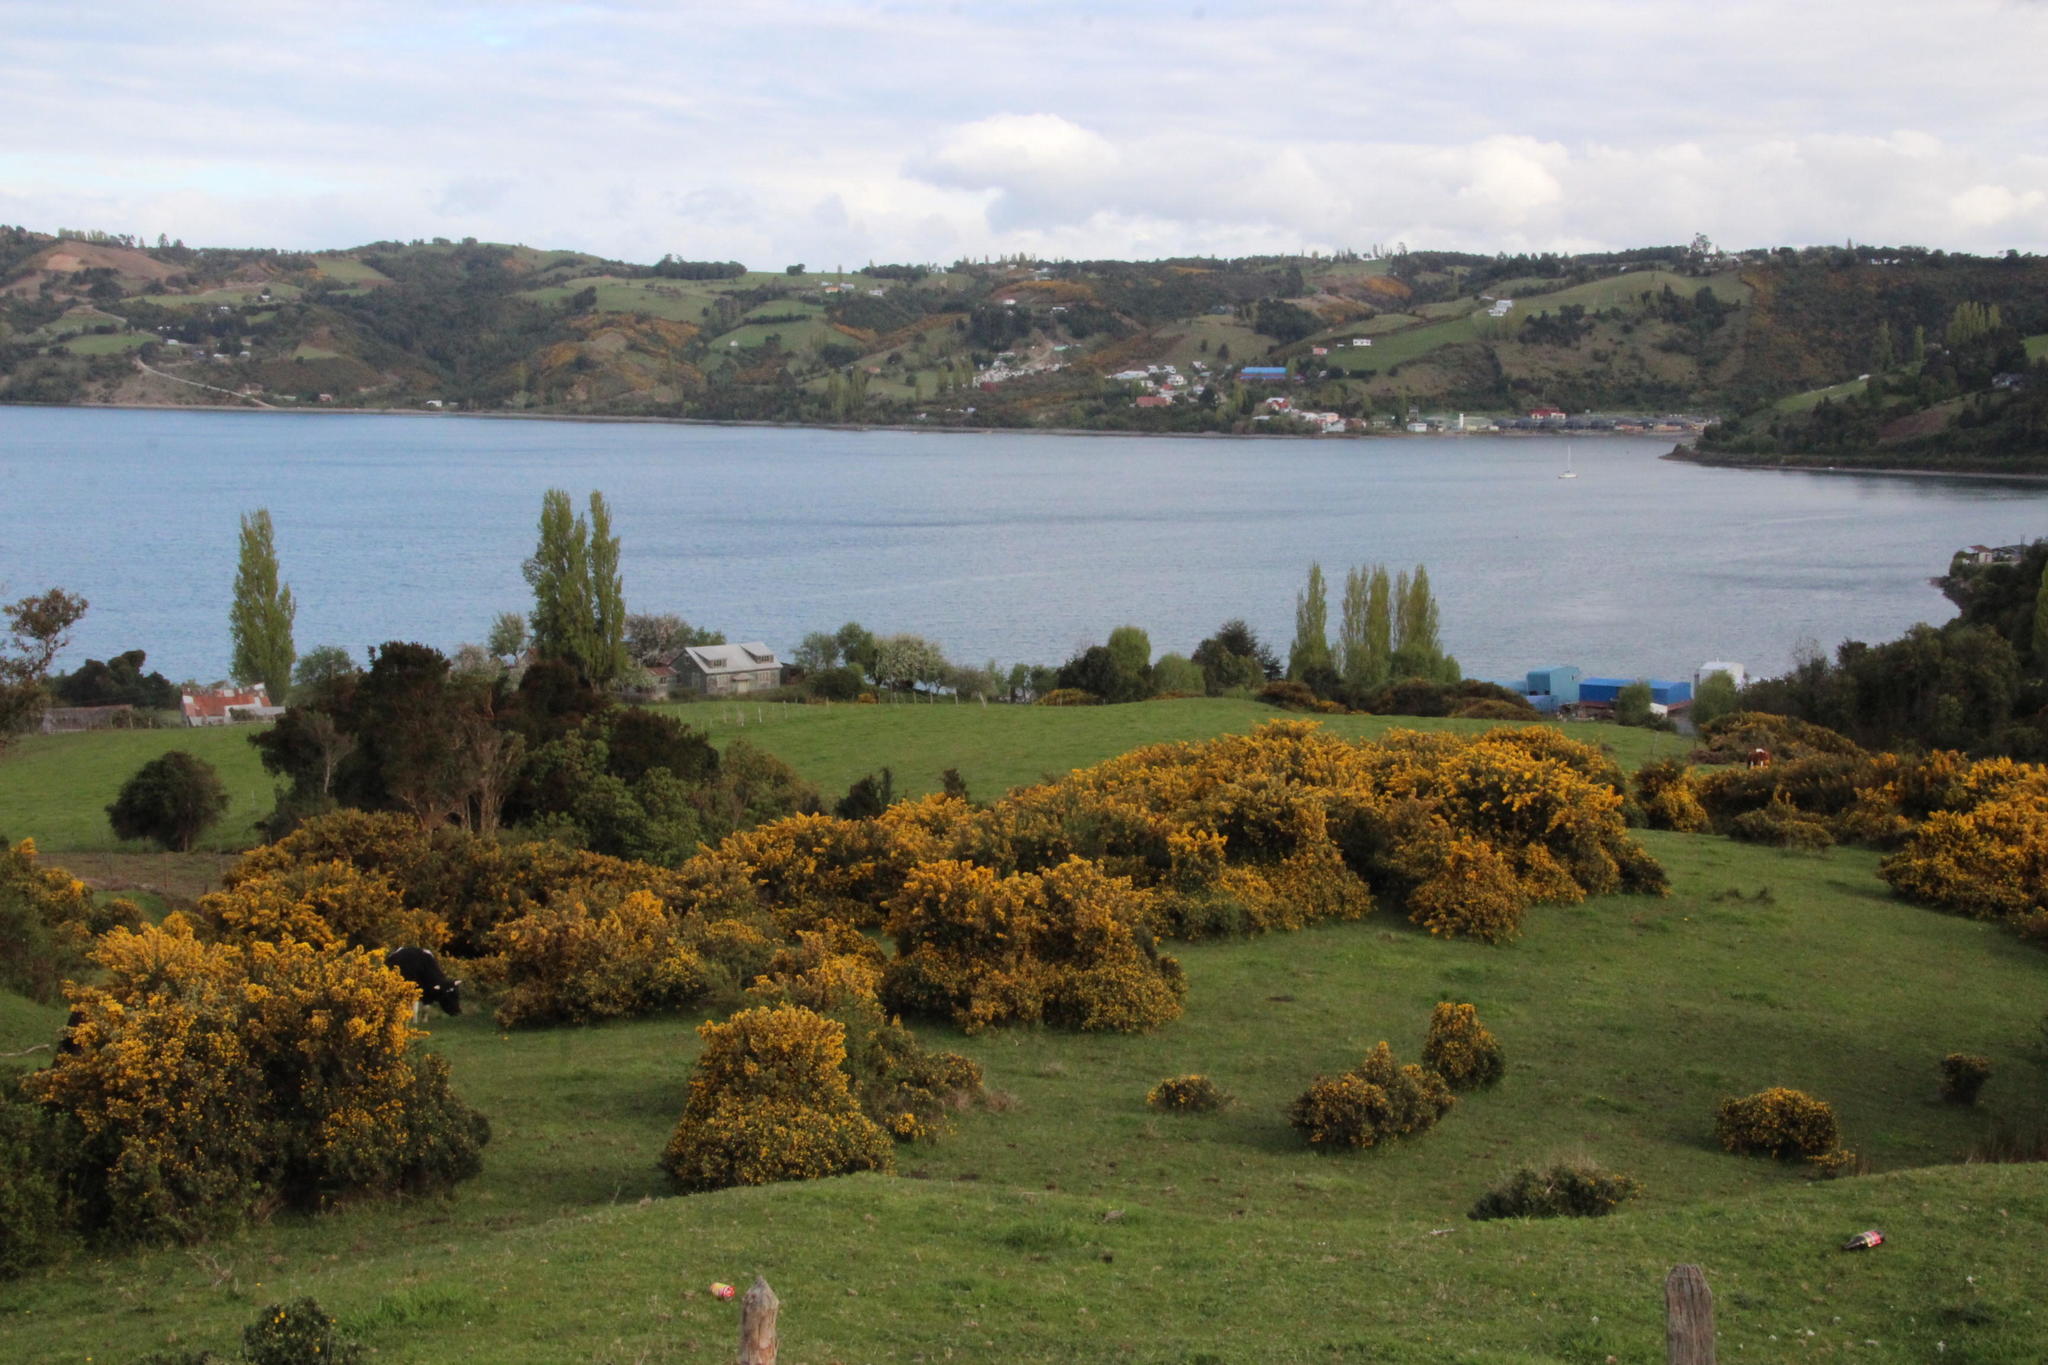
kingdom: Plantae
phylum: Tracheophyta
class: Magnoliopsida
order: Fabales
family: Fabaceae
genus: Ulex
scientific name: Ulex europaeus
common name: Common gorse
